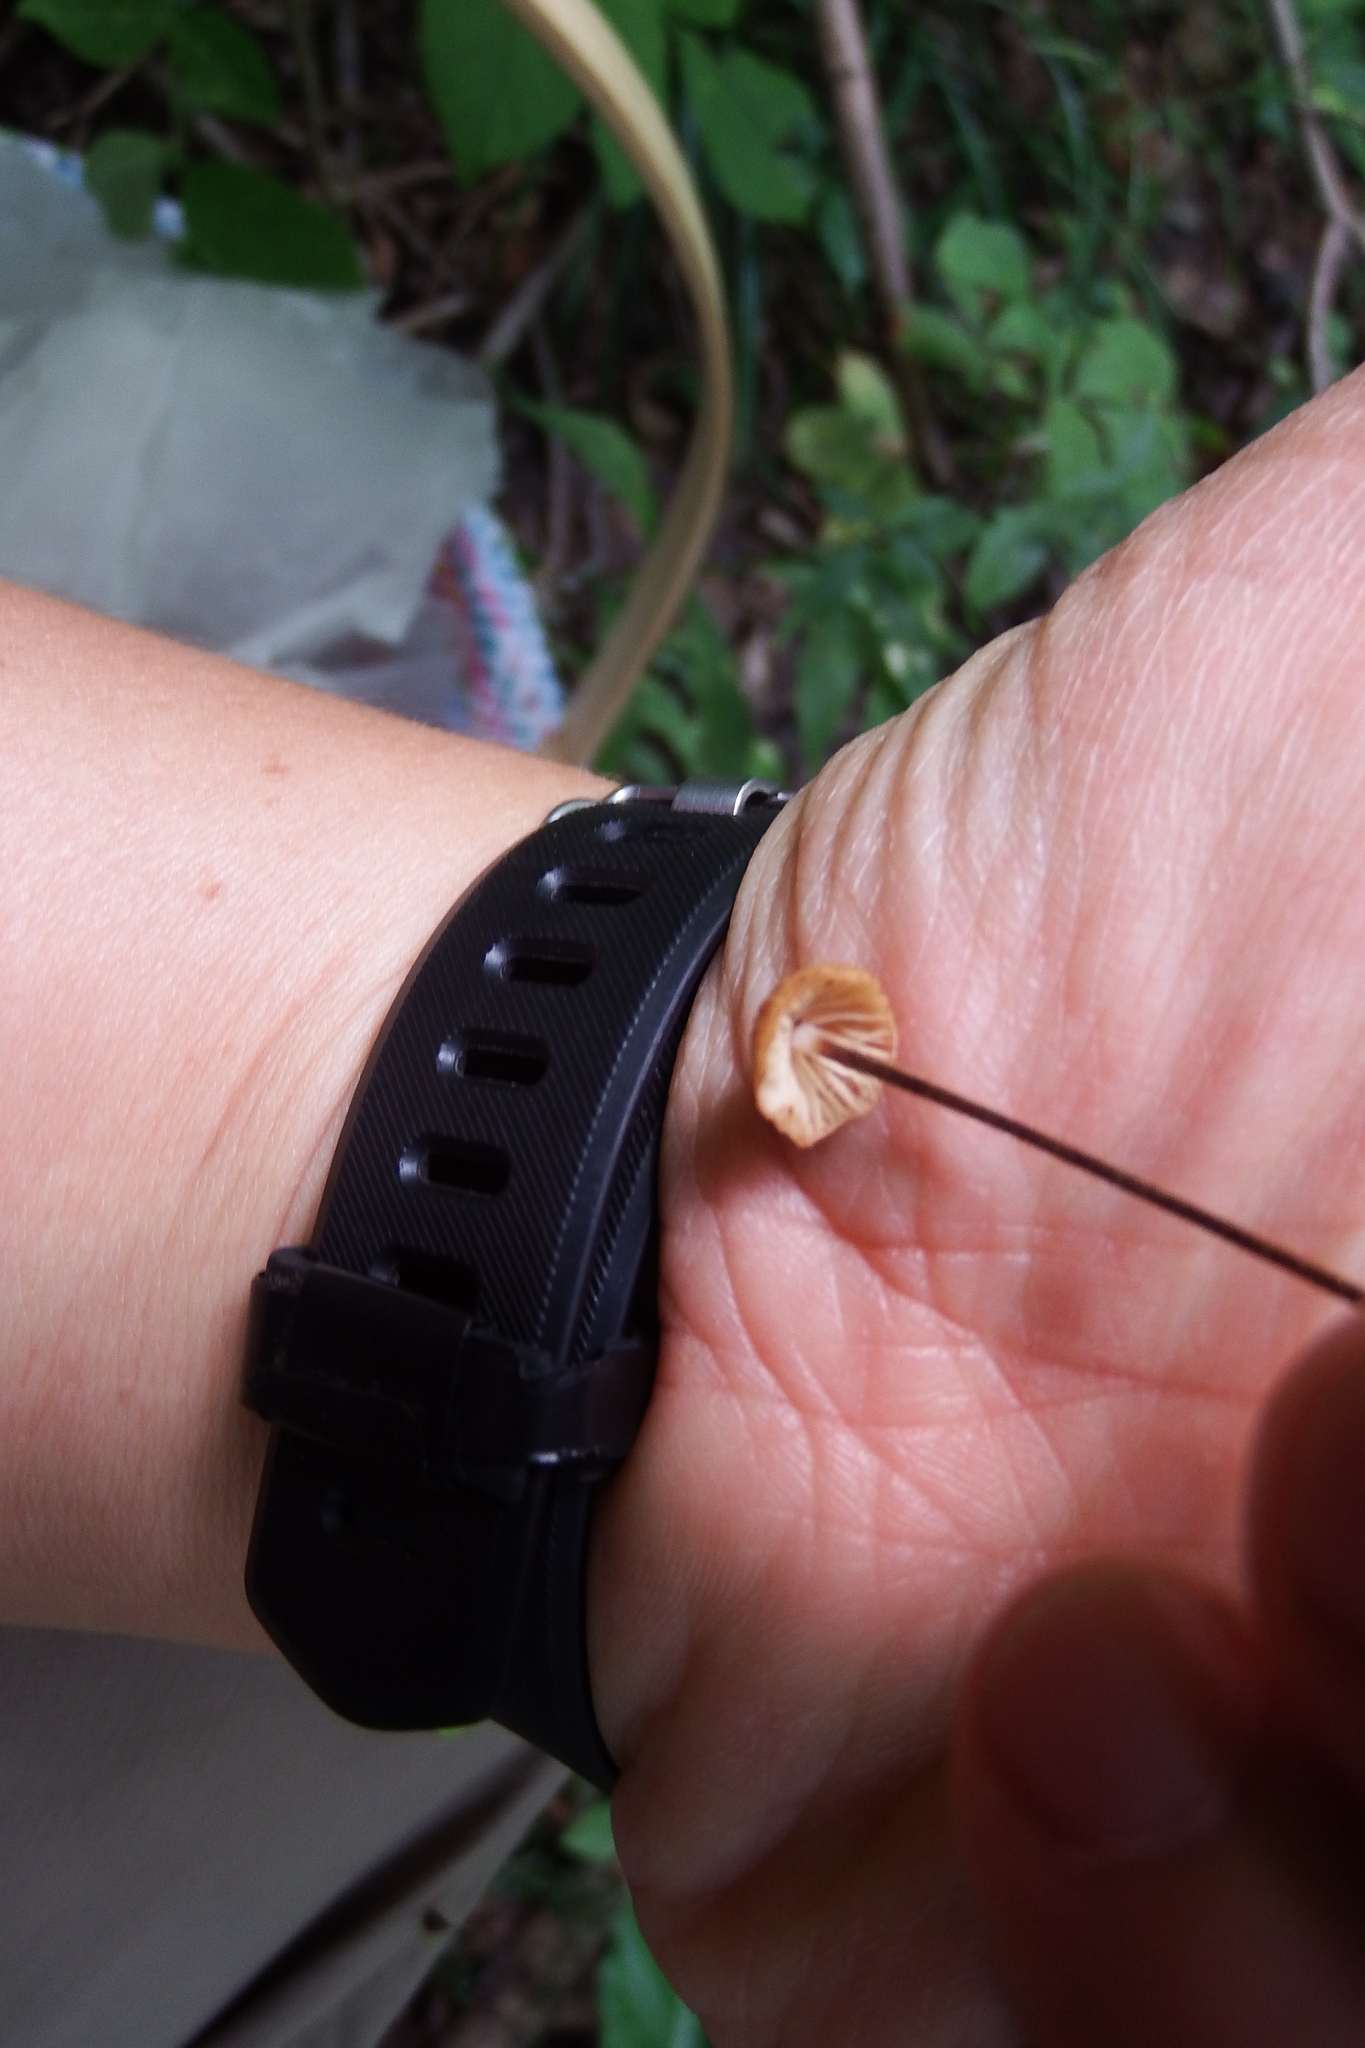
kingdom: Fungi
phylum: Basidiomycota
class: Agaricomycetes
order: Agaricales
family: Physalacriaceae
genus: Rhizomarasmius
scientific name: Rhizomarasmius pyrrhocephalus
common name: Hairy long stem marasmius
